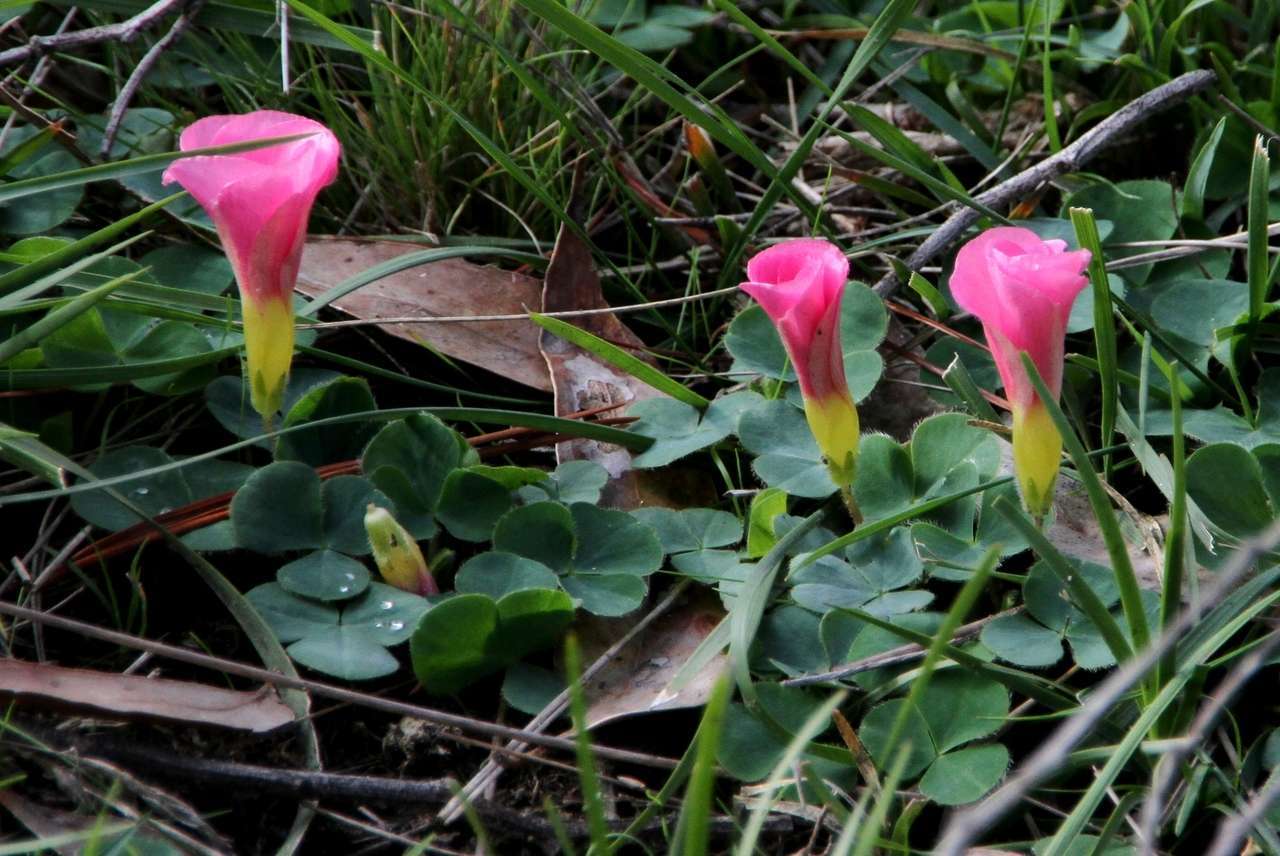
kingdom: Plantae
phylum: Tracheophyta
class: Magnoliopsida
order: Oxalidales
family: Oxalidaceae
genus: Oxalis
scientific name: Oxalis purpurea
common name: Purple woodsorrel
